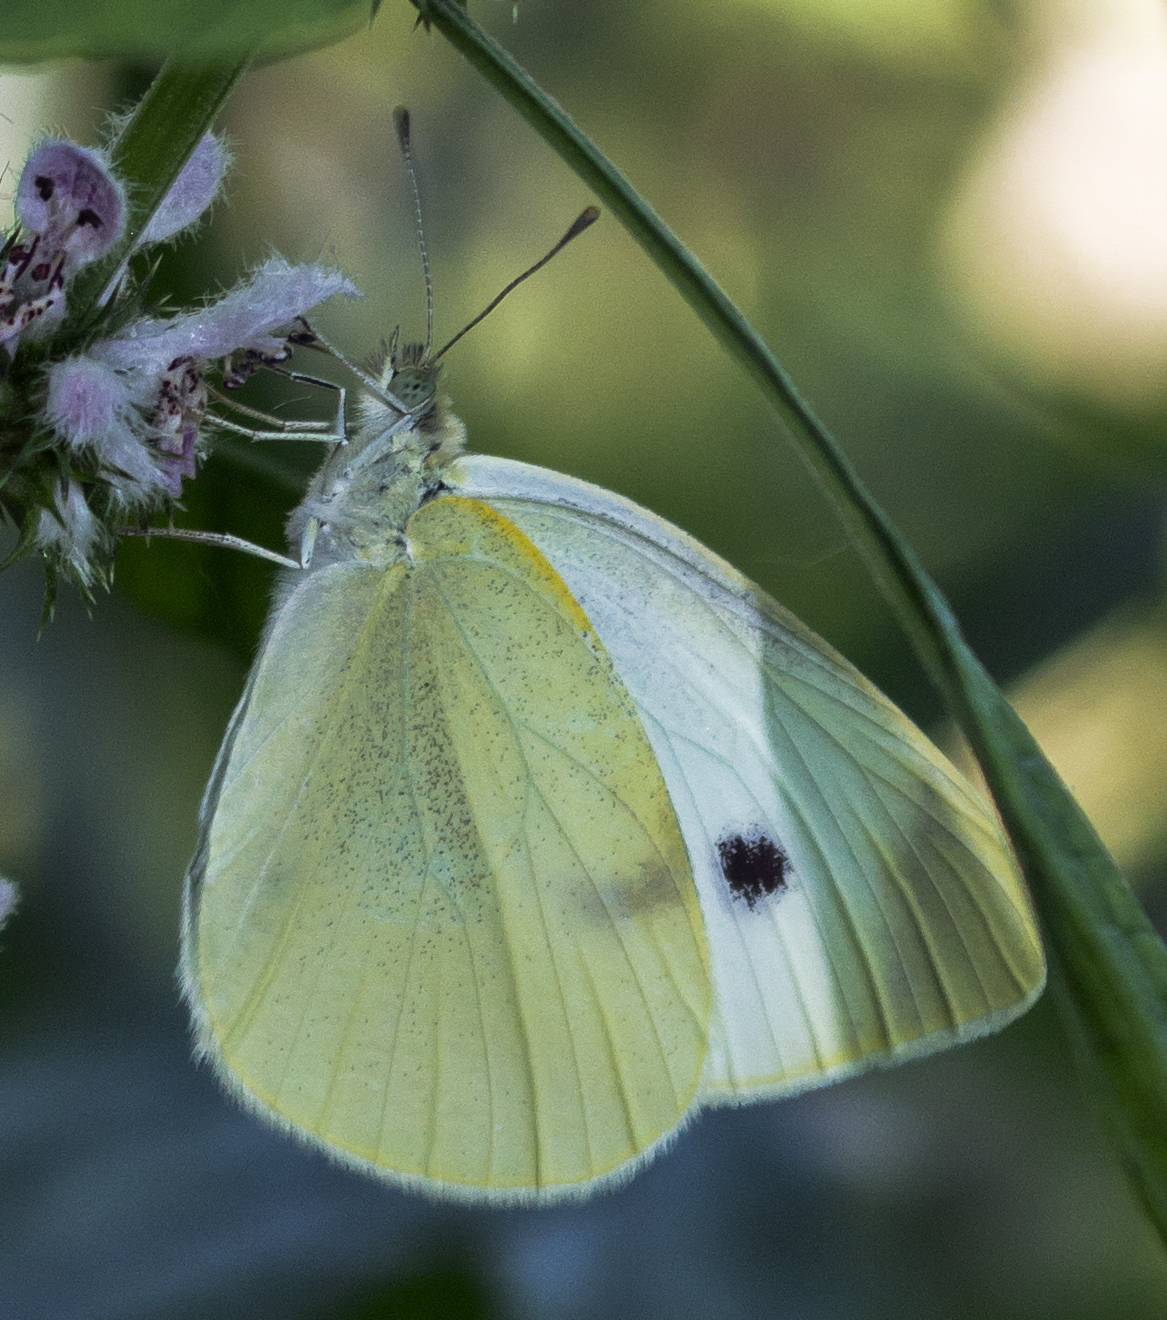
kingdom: Animalia
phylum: Arthropoda
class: Insecta
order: Lepidoptera
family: Pieridae
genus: Pieris
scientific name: Pieris rapae
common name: Small white
